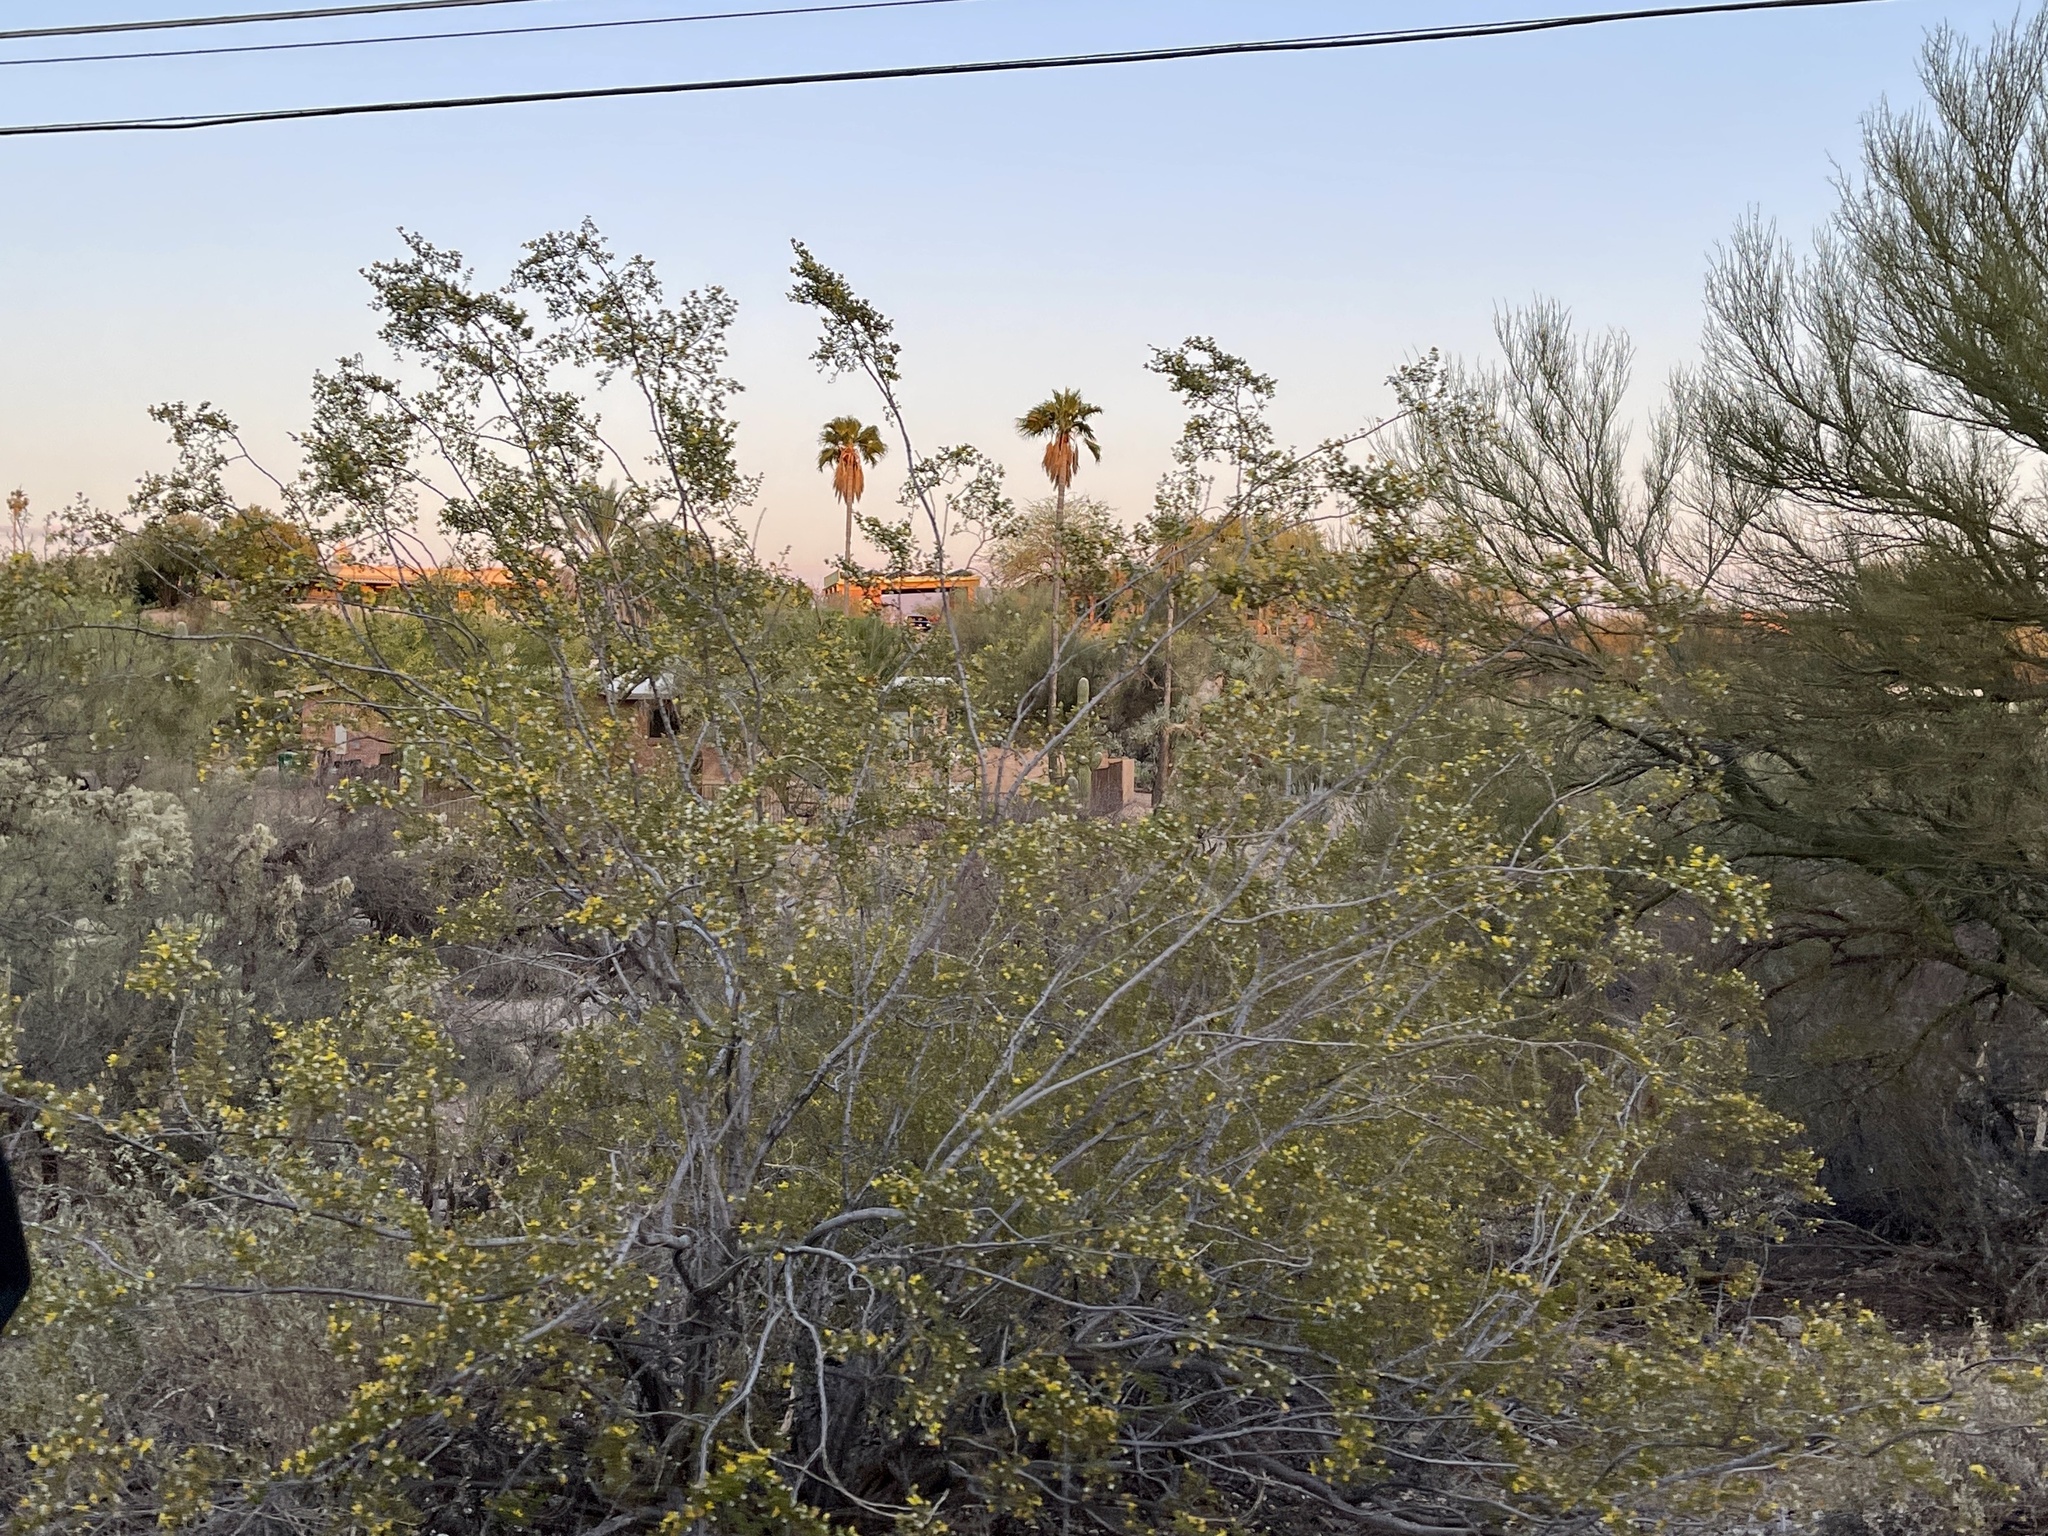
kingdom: Plantae
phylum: Tracheophyta
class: Magnoliopsida
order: Zygophyllales
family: Zygophyllaceae
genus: Larrea
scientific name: Larrea tridentata
